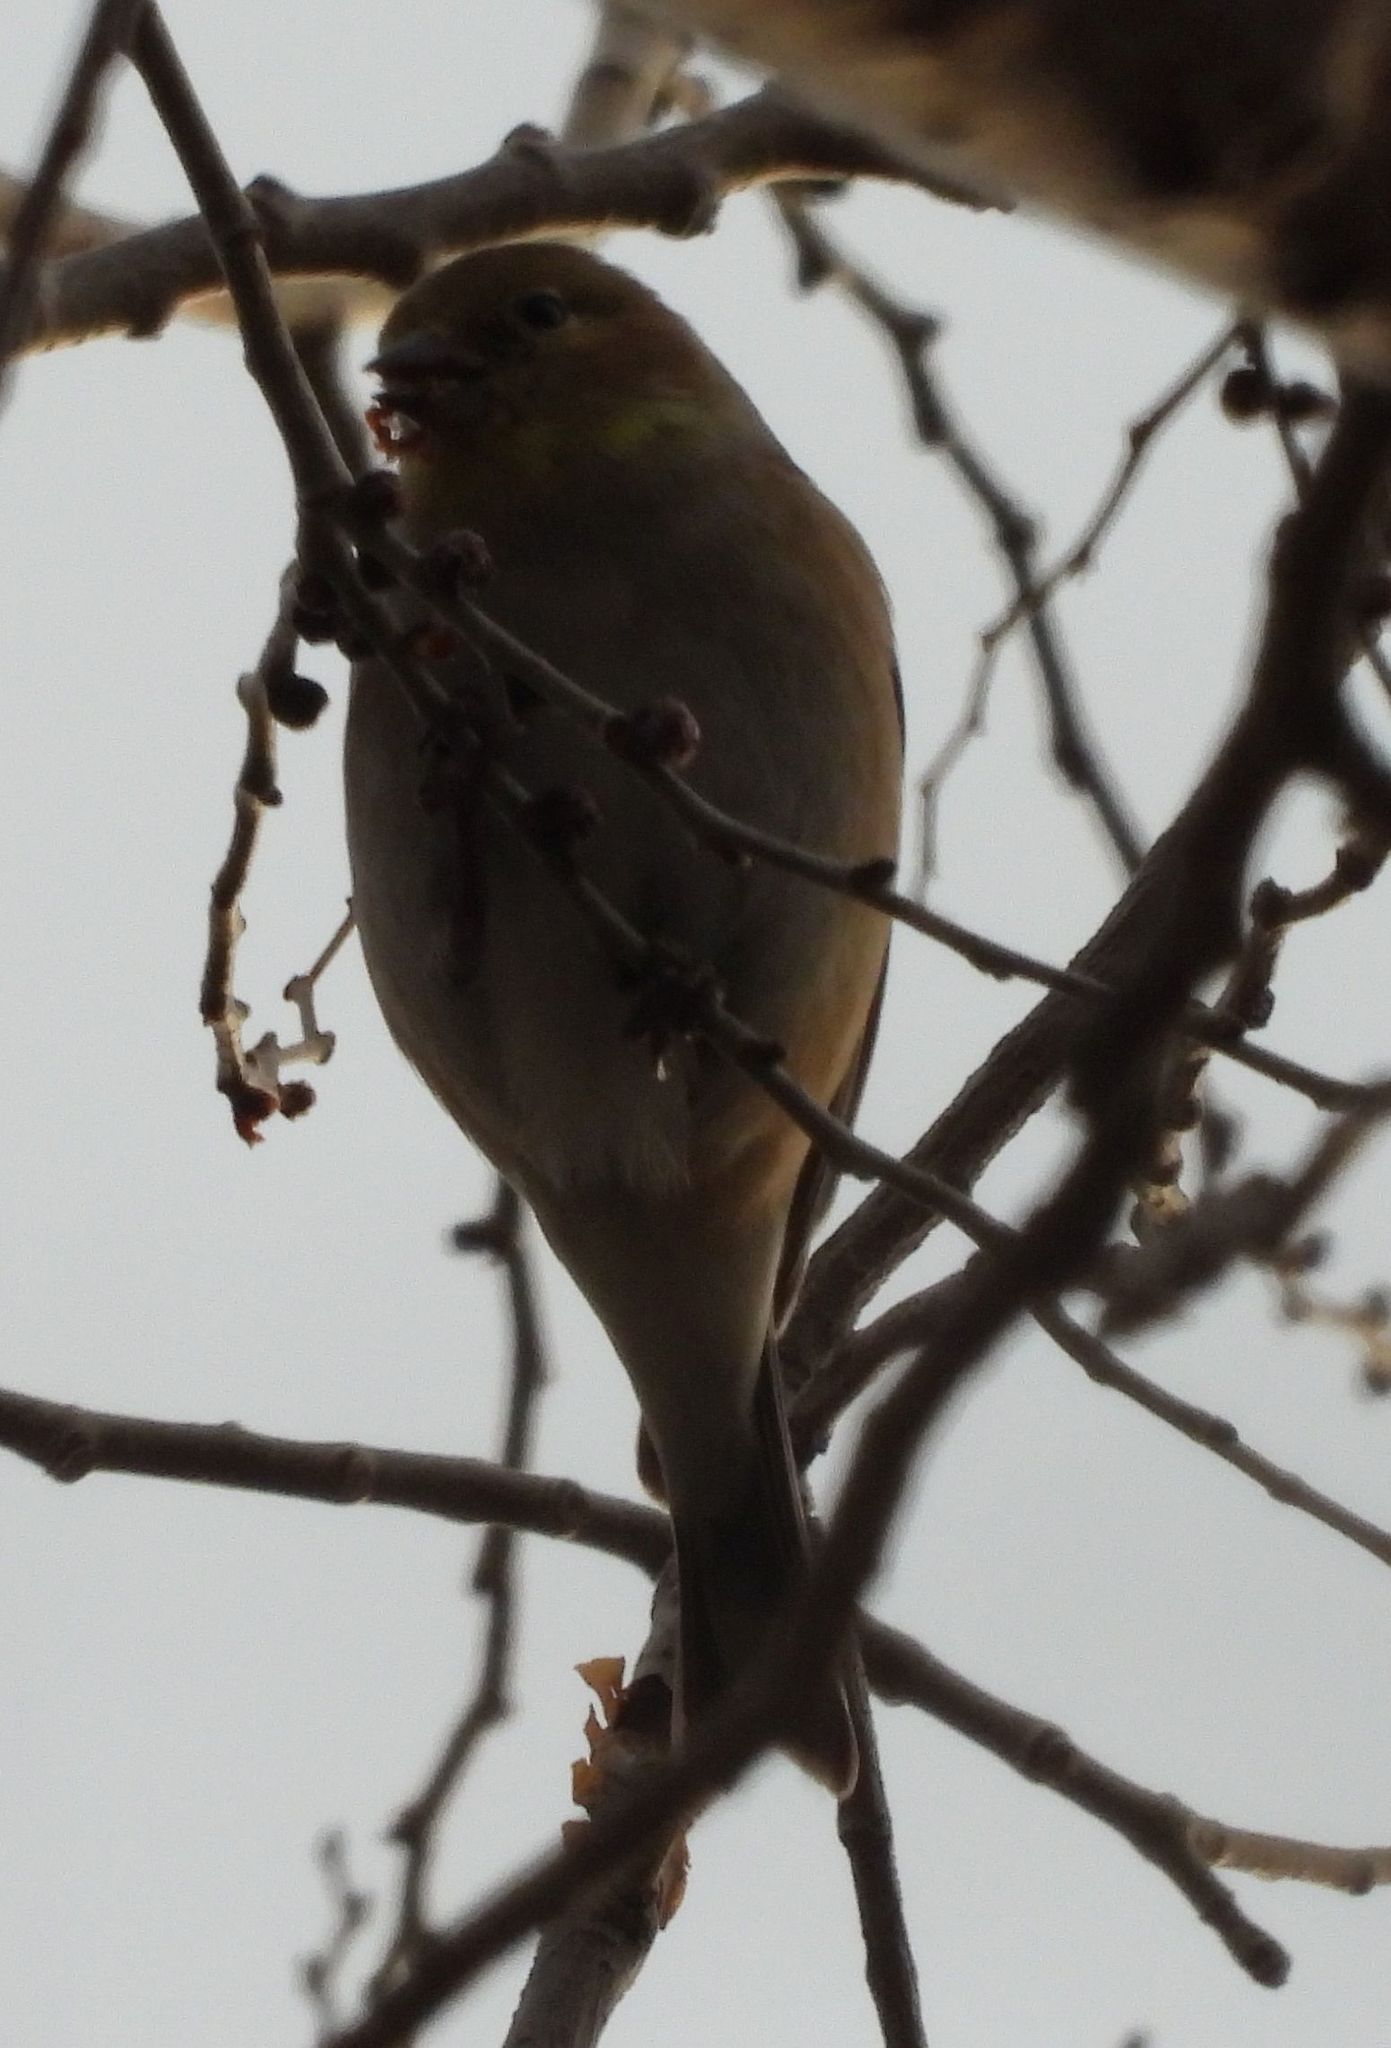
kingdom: Animalia
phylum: Chordata
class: Aves
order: Passeriformes
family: Fringillidae
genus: Spinus
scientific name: Spinus tristis
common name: American goldfinch
